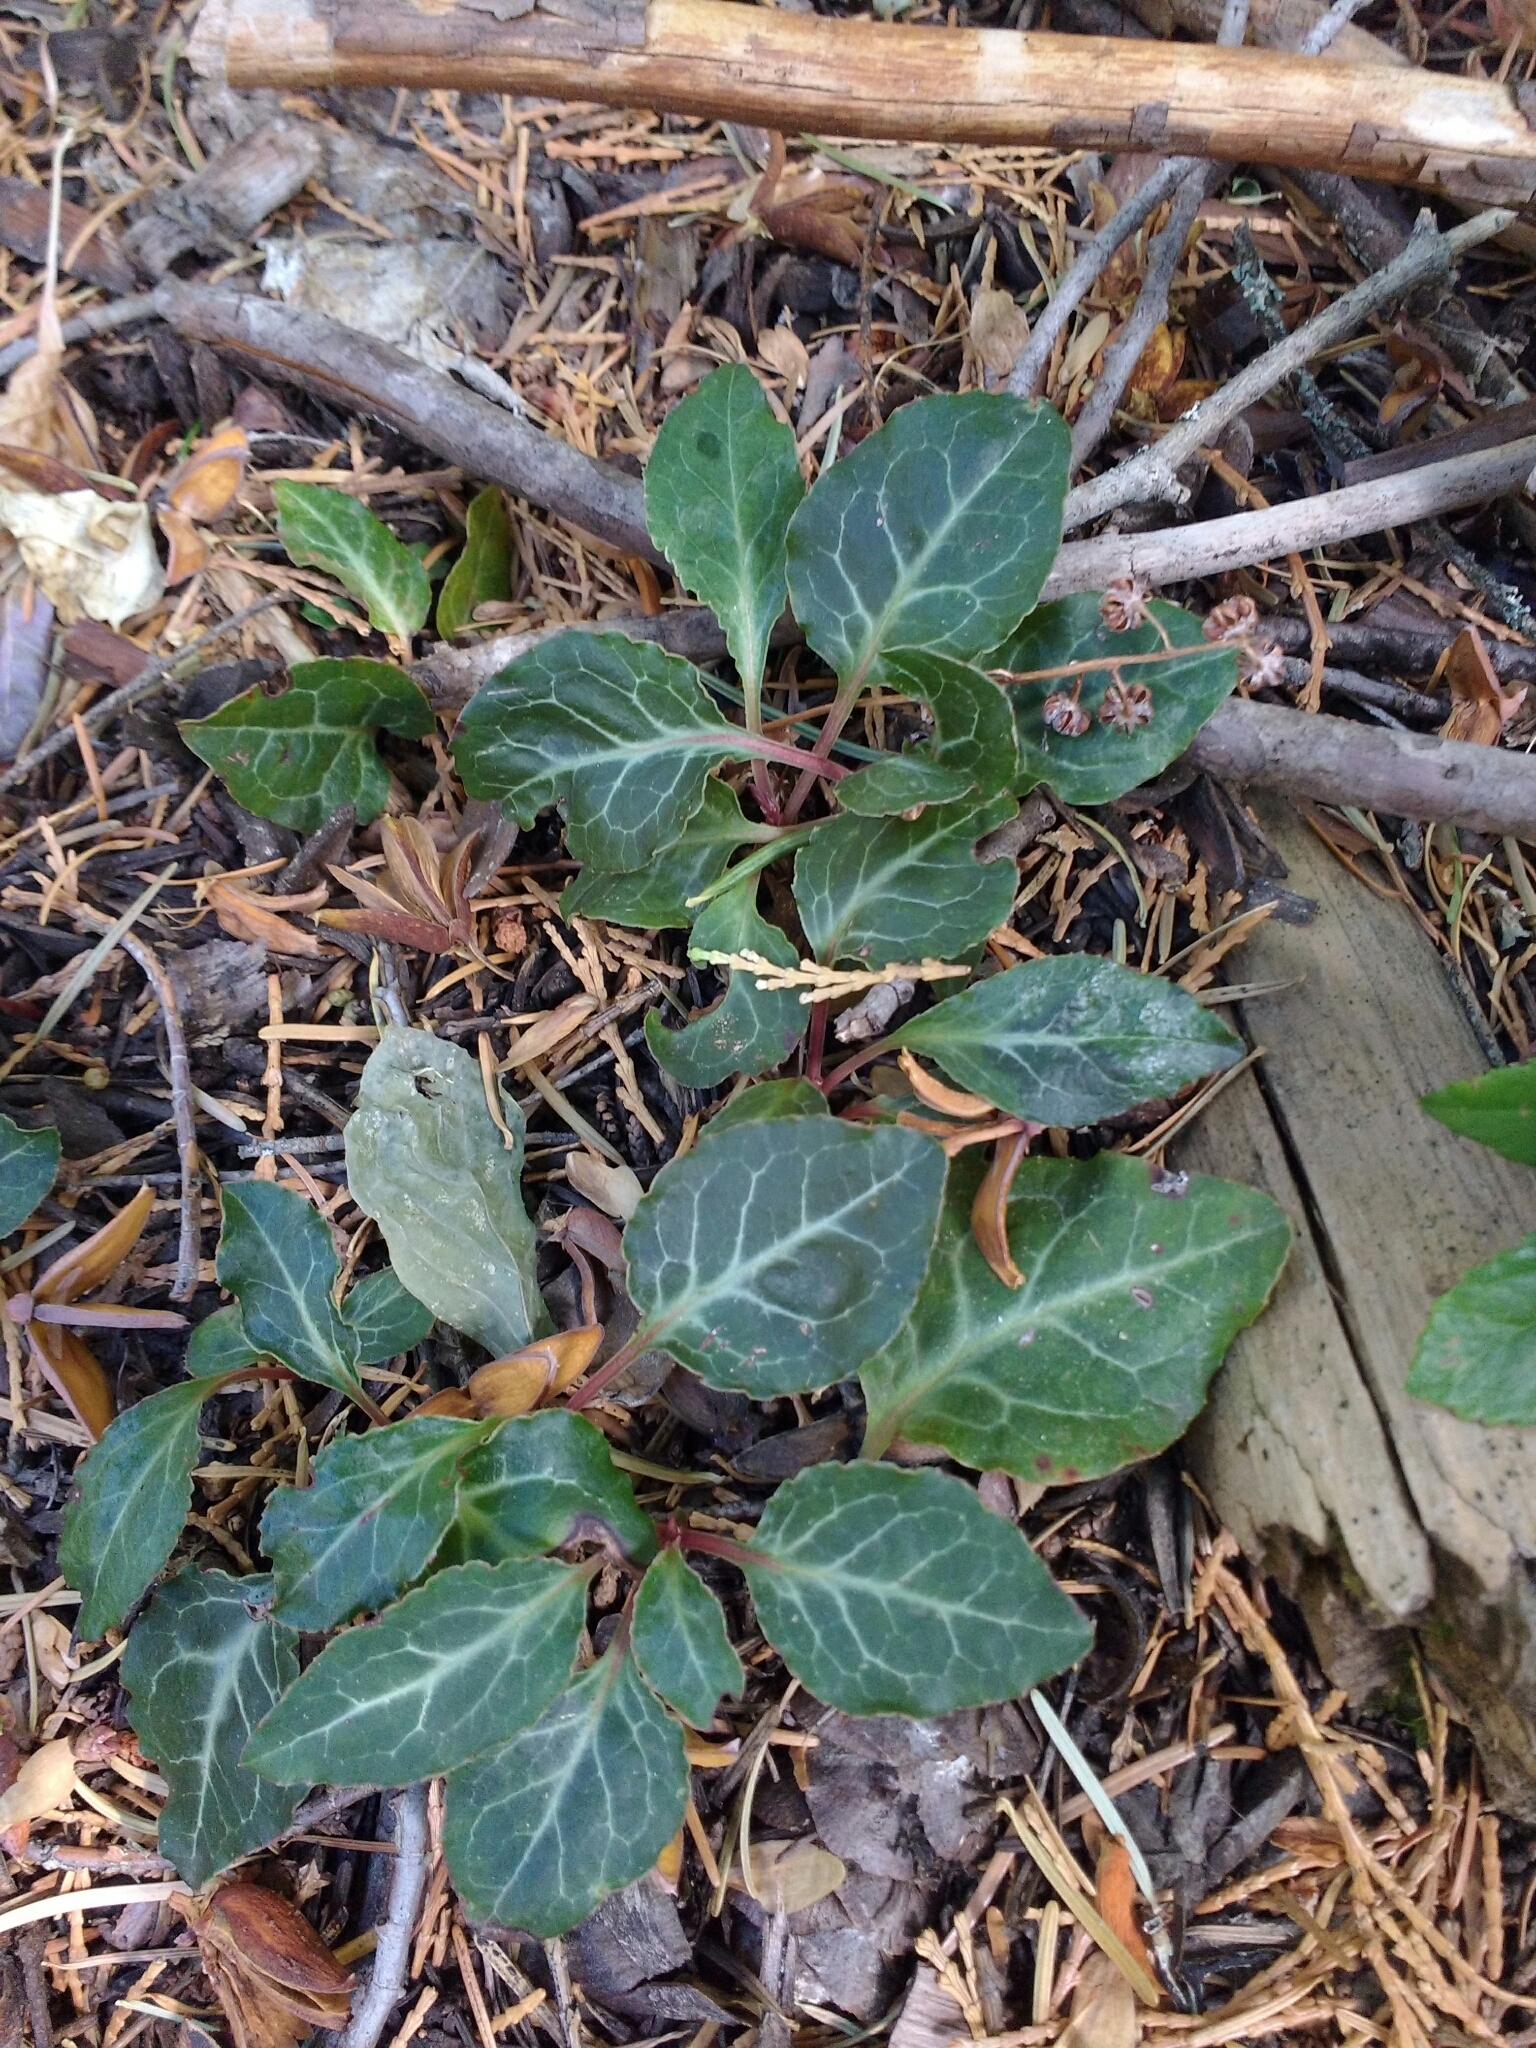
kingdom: Plantae
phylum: Tracheophyta
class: Magnoliopsida
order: Ericales
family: Ericaceae
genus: Pyrola
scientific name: Pyrola picta
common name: White-vein wintergreen
